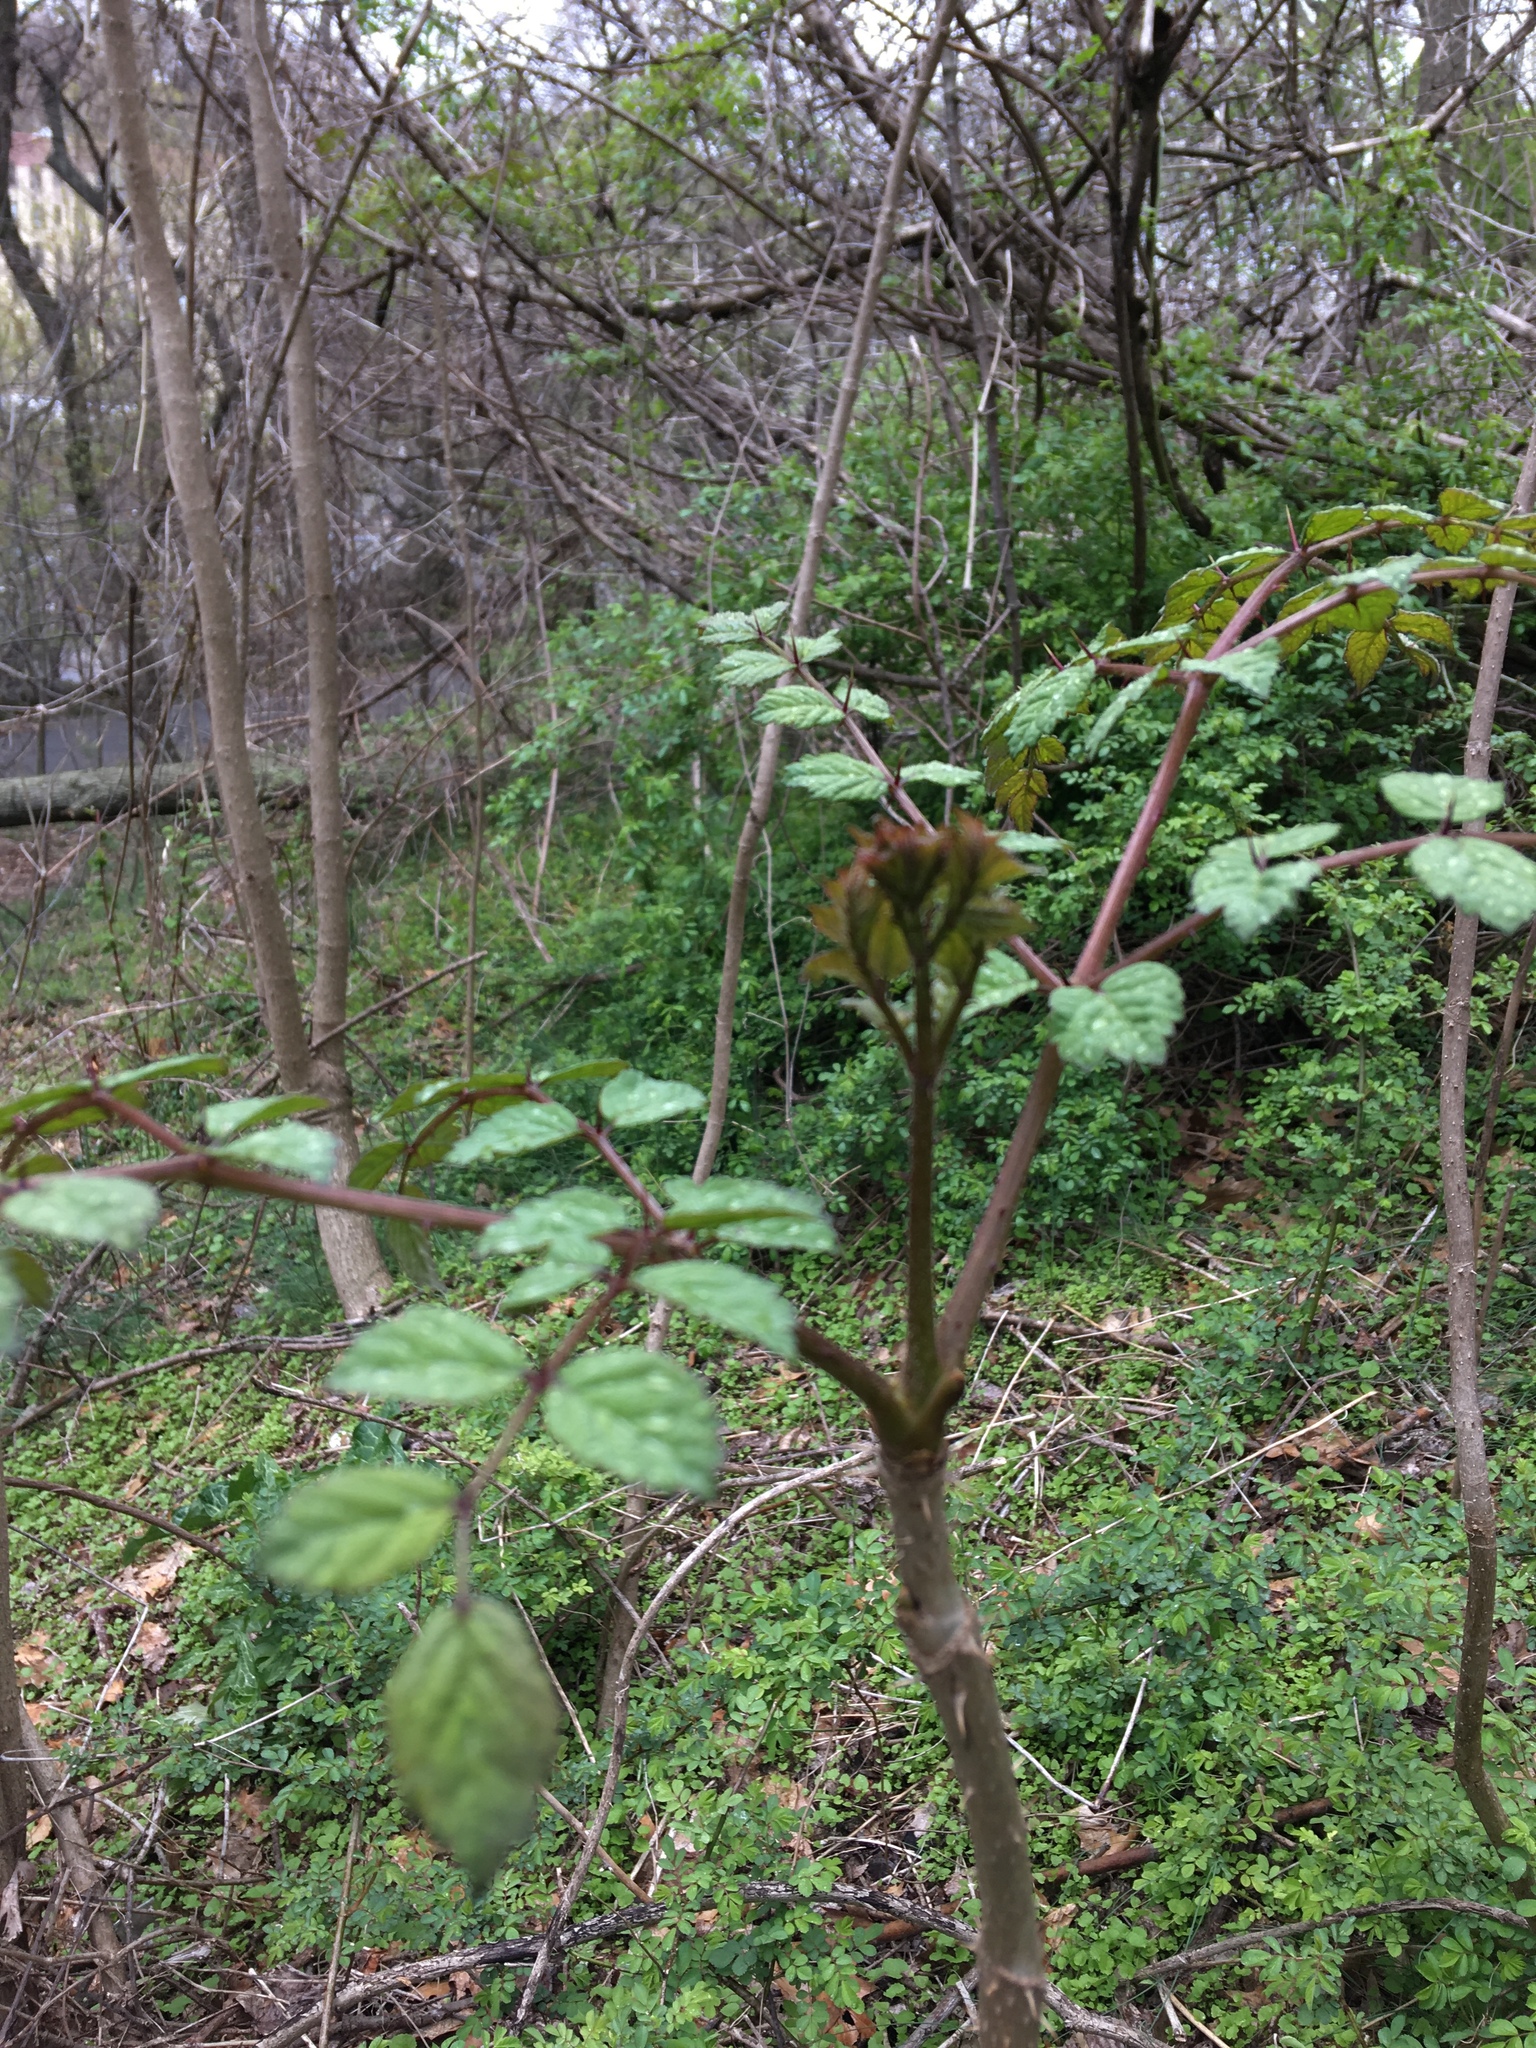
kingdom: Plantae
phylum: Tracheophyta
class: Magnoliopsida
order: Apiales
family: Araliaceae
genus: Aralia
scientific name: Aralia elata
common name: Japanese angelica-tree
